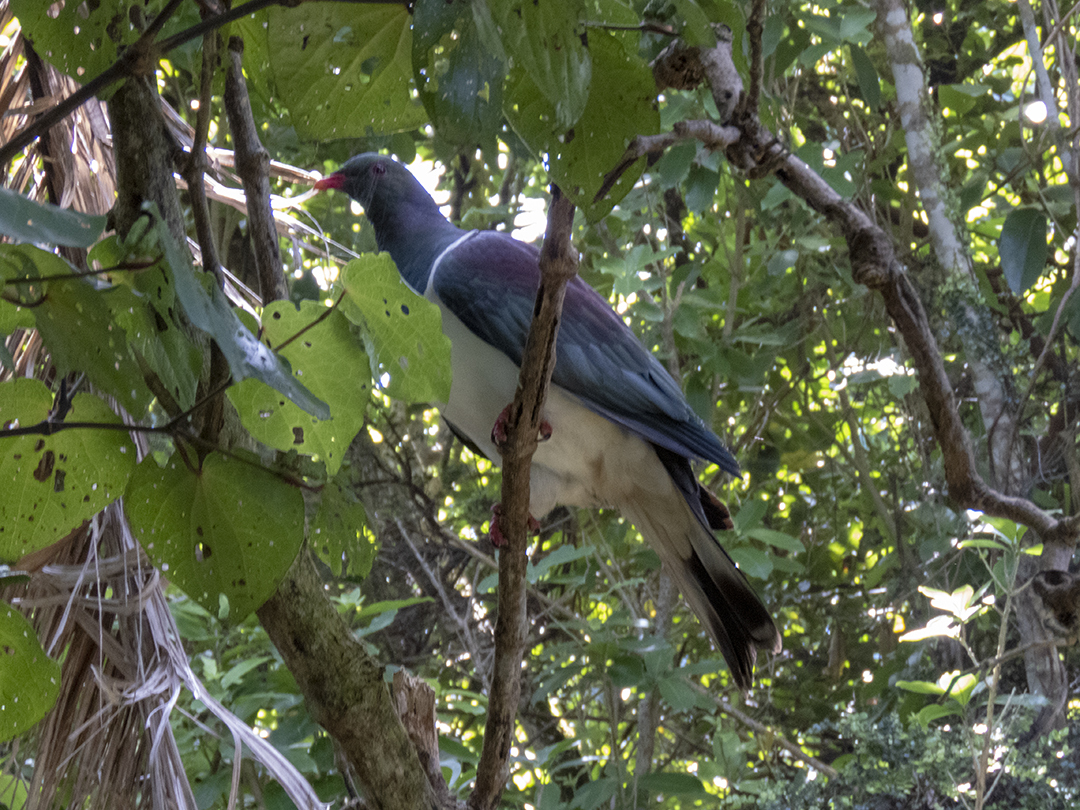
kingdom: Animalia
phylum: Chordata
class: Aves
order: Columbiformes
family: Columbidae
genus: Hemiphaga
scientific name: Hemiphaga novaeseelandiae
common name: New zealand pigeon
